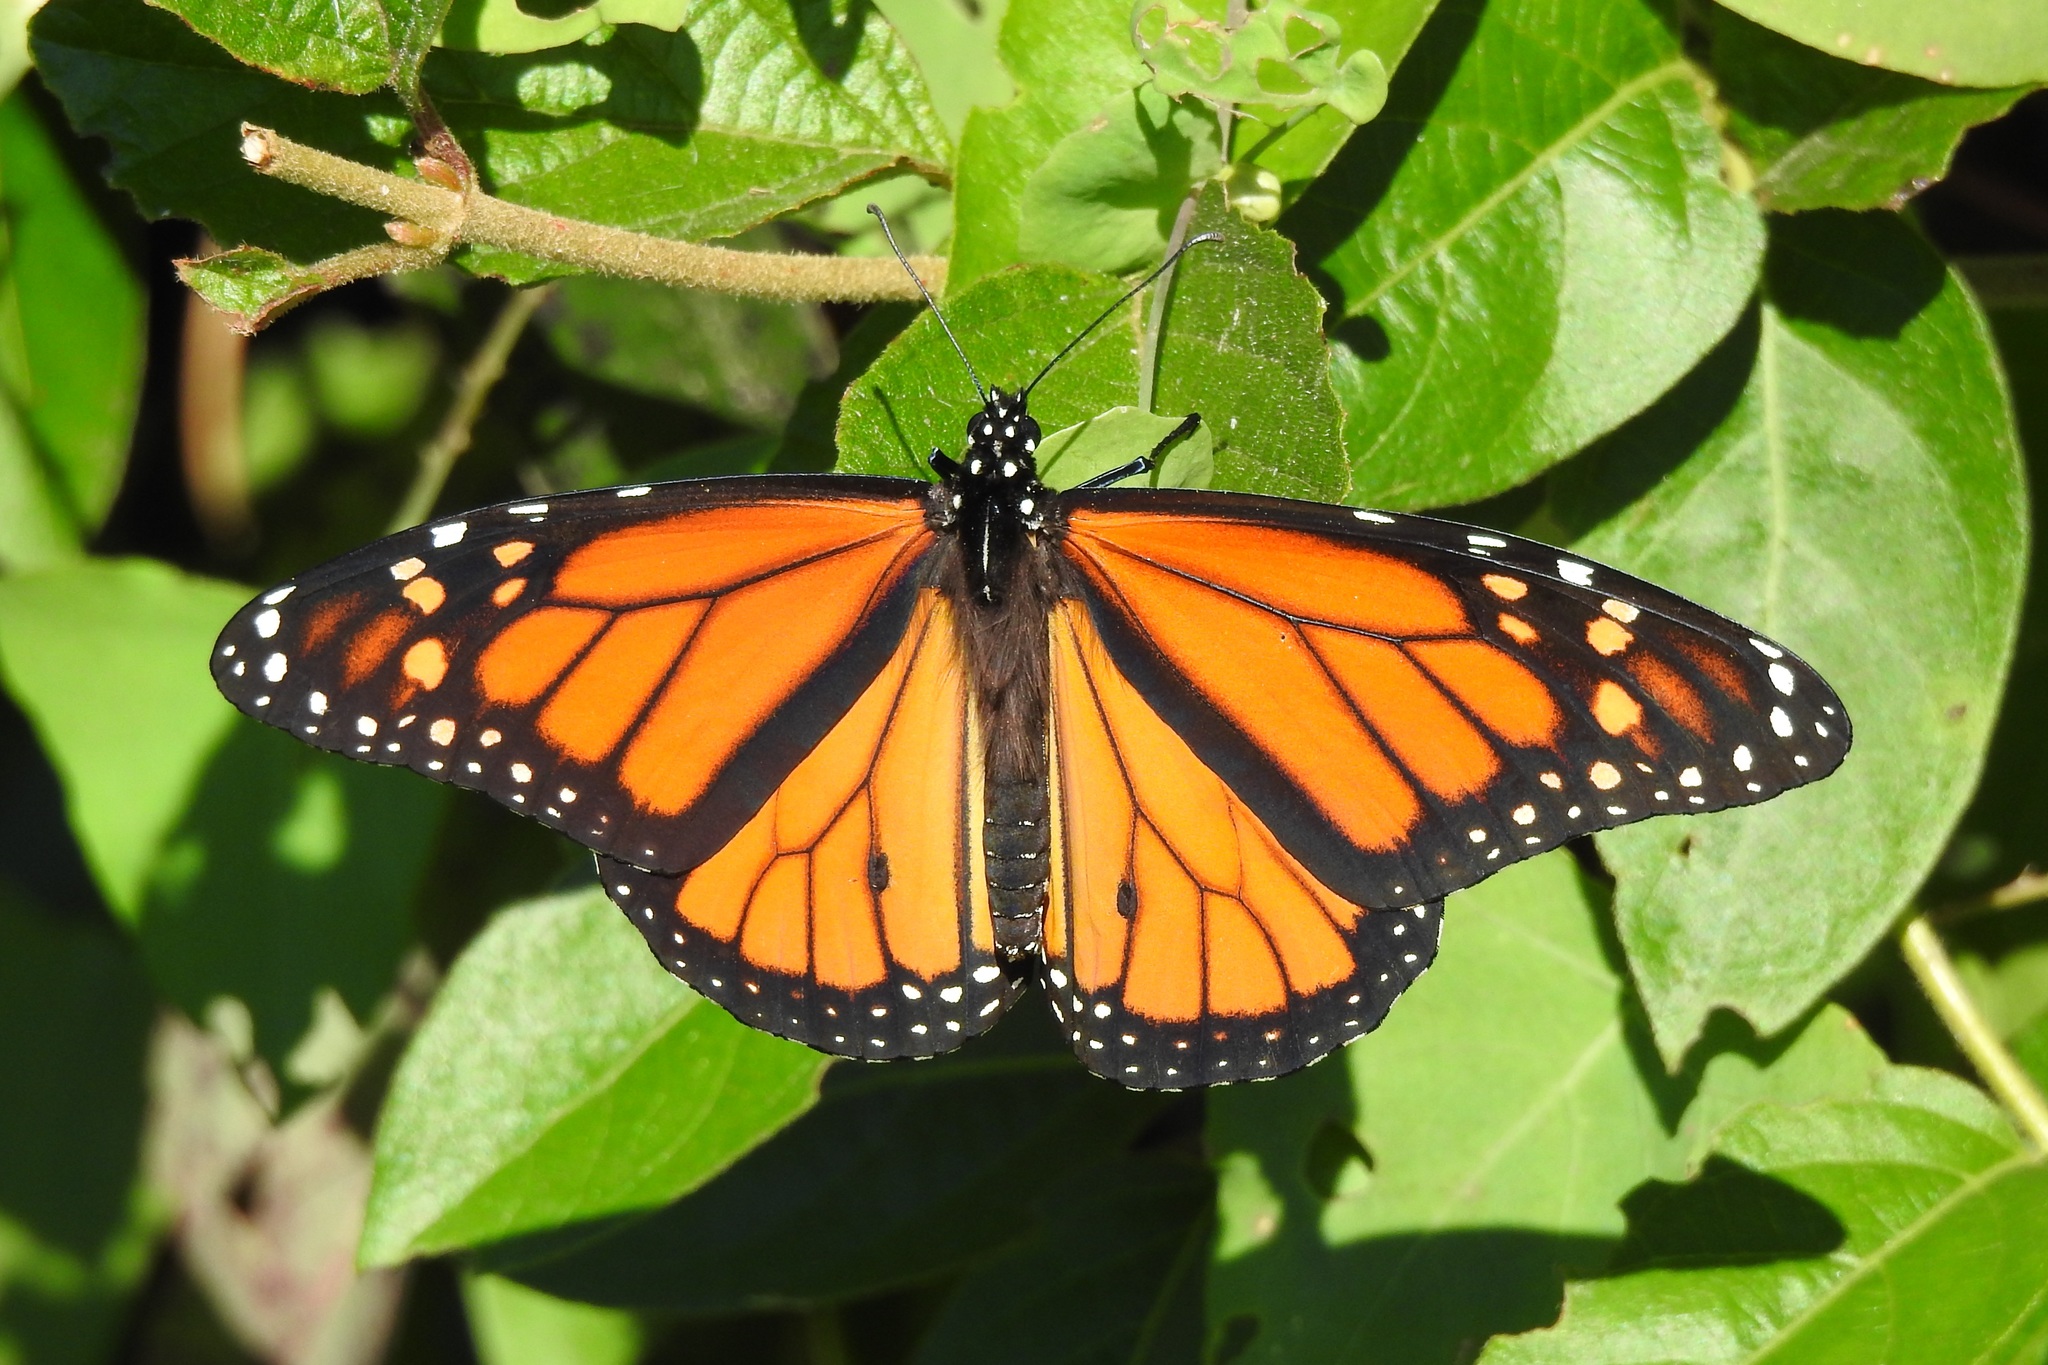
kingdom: Animalia
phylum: Arthropoda
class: Insecta
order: Lepidoptera
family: Nymphalidae
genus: Danaus
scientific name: Danaus plexippus
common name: Monarch
